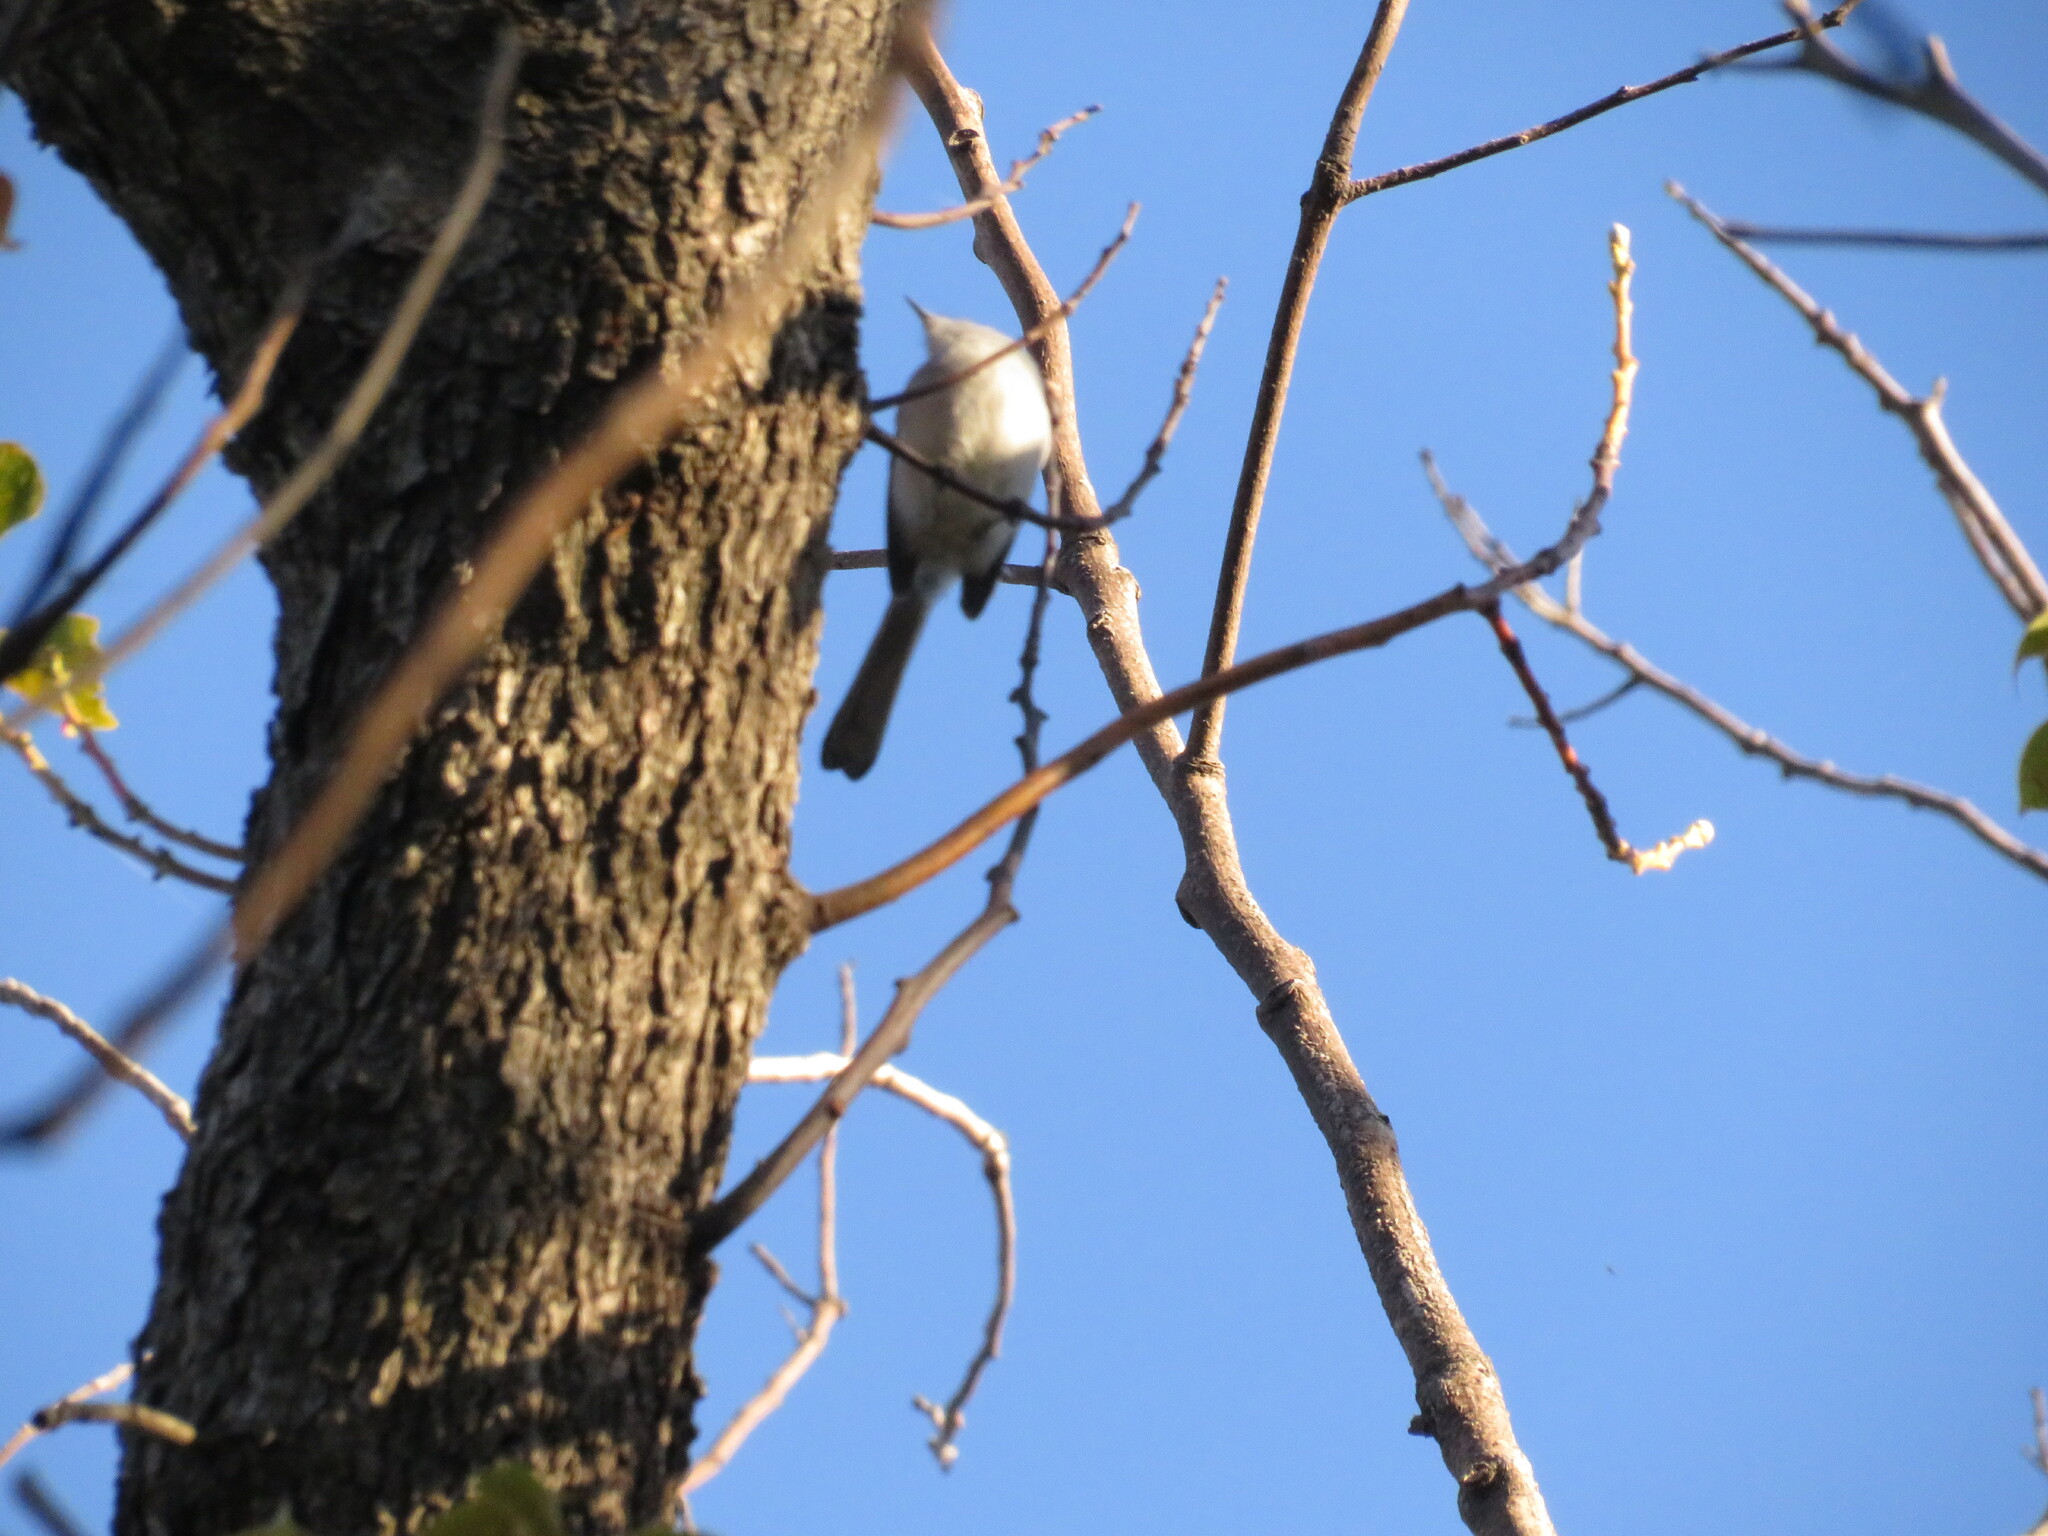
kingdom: Animalia
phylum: Chordata
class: Aves
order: Passeriformes
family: Polioptilidae
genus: Polioptila
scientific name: Polioptila dumicola
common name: Masked gnatcatcher
